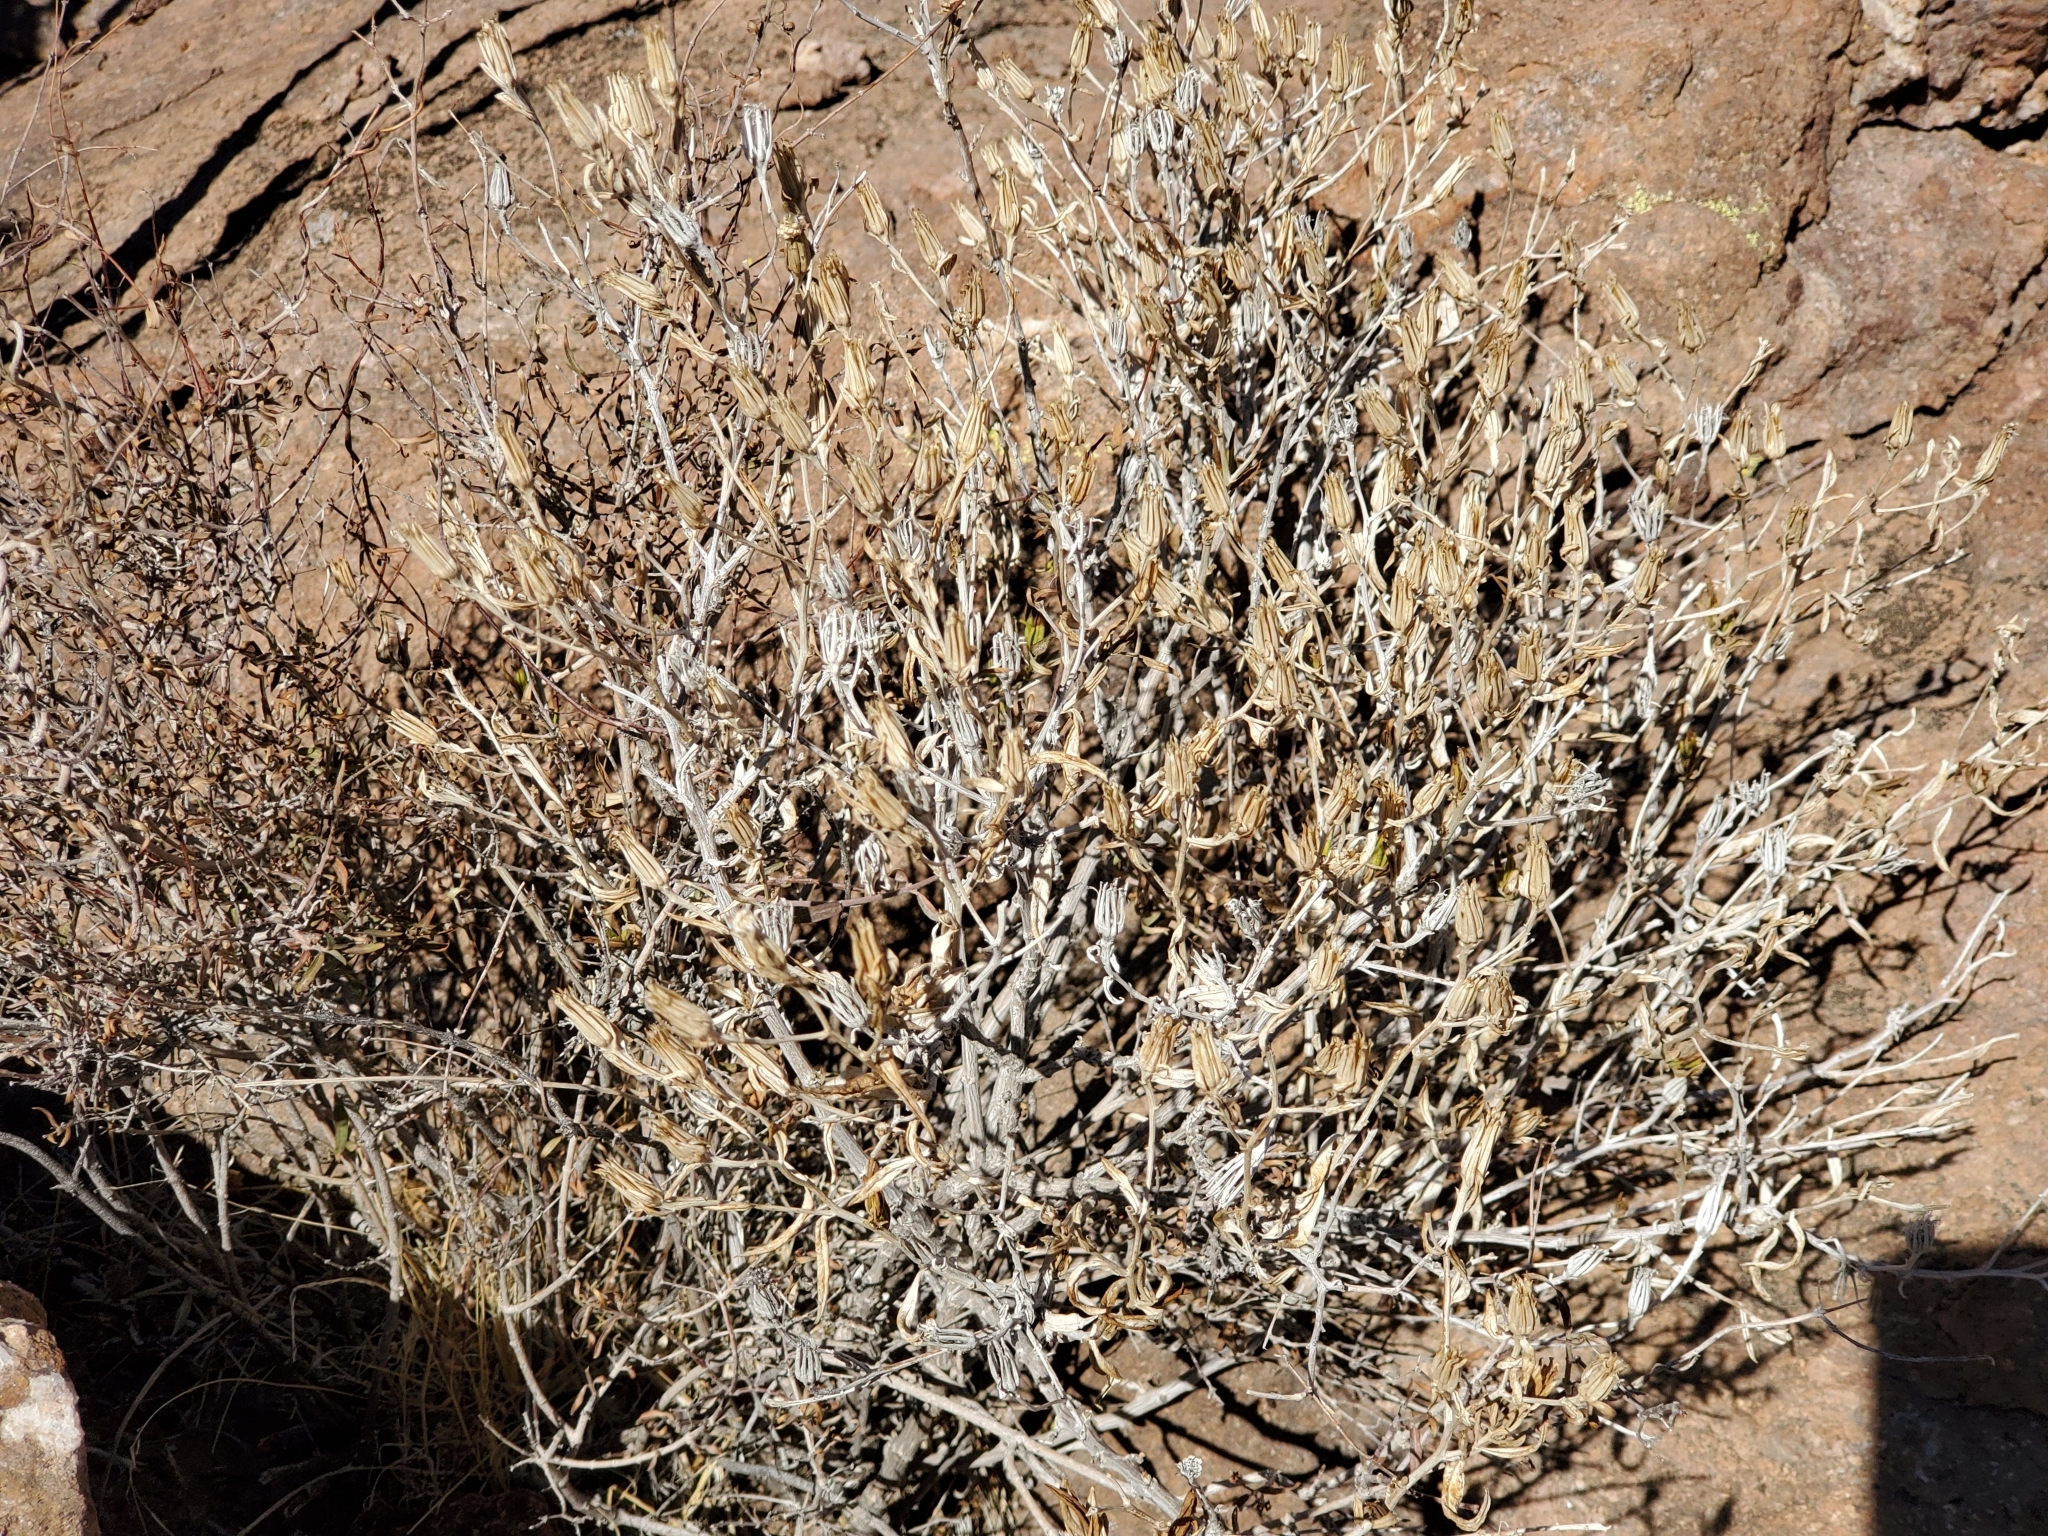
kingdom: Plantae
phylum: Tracheophyta
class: Magnoliopsida
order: Asterales
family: Asteraceae
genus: Trixis
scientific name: Trixis californica
